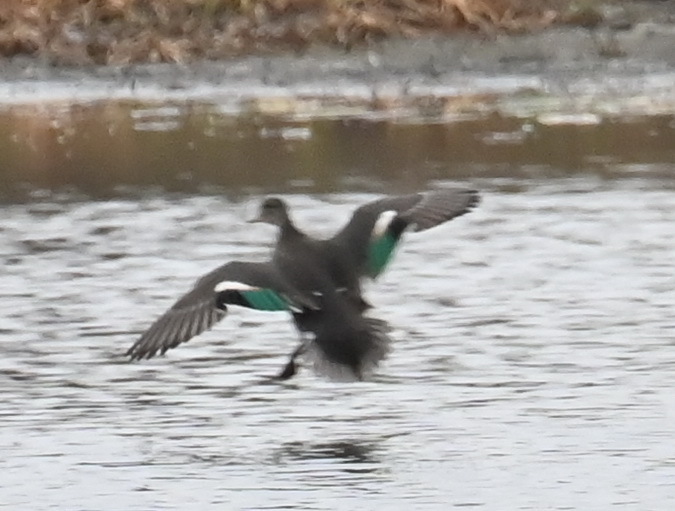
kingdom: Animalia
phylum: Chordata
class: Aves
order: Anseriformes
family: Anatidae
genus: Anas
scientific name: Anas crecca
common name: Eurasian teal
